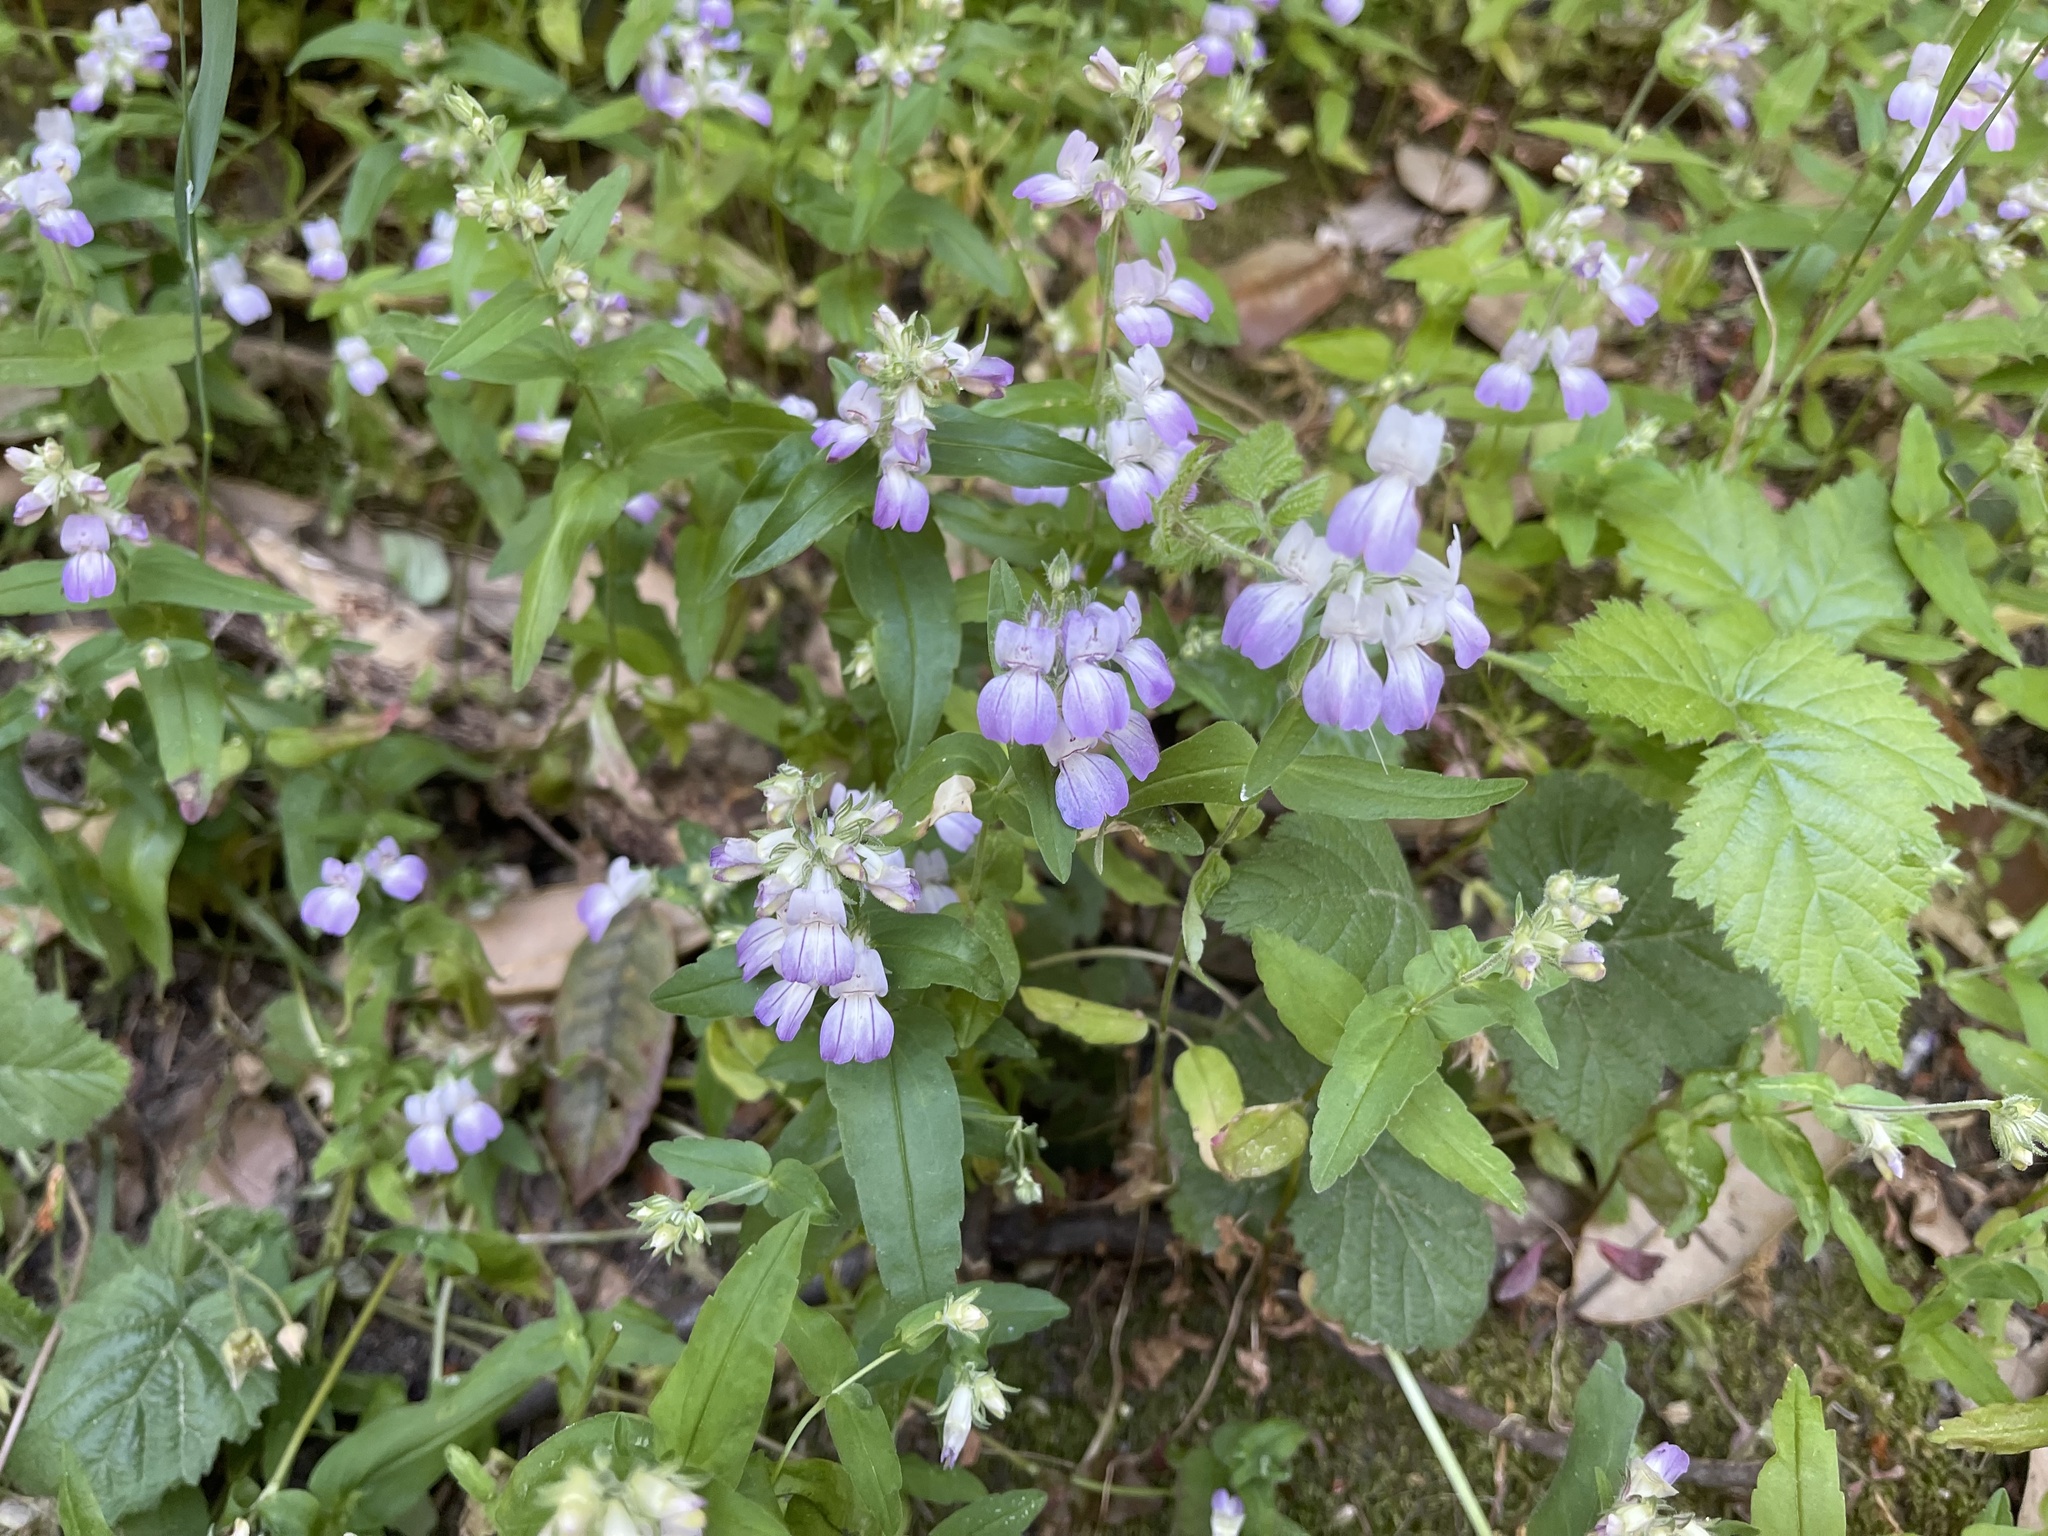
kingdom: Plantae
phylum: Tracheophyta
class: Magnoliopsida
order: Lamiales
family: Plantaginaceae
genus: Collinsia
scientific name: Collinsia heterophylla
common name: Chinese-houses
